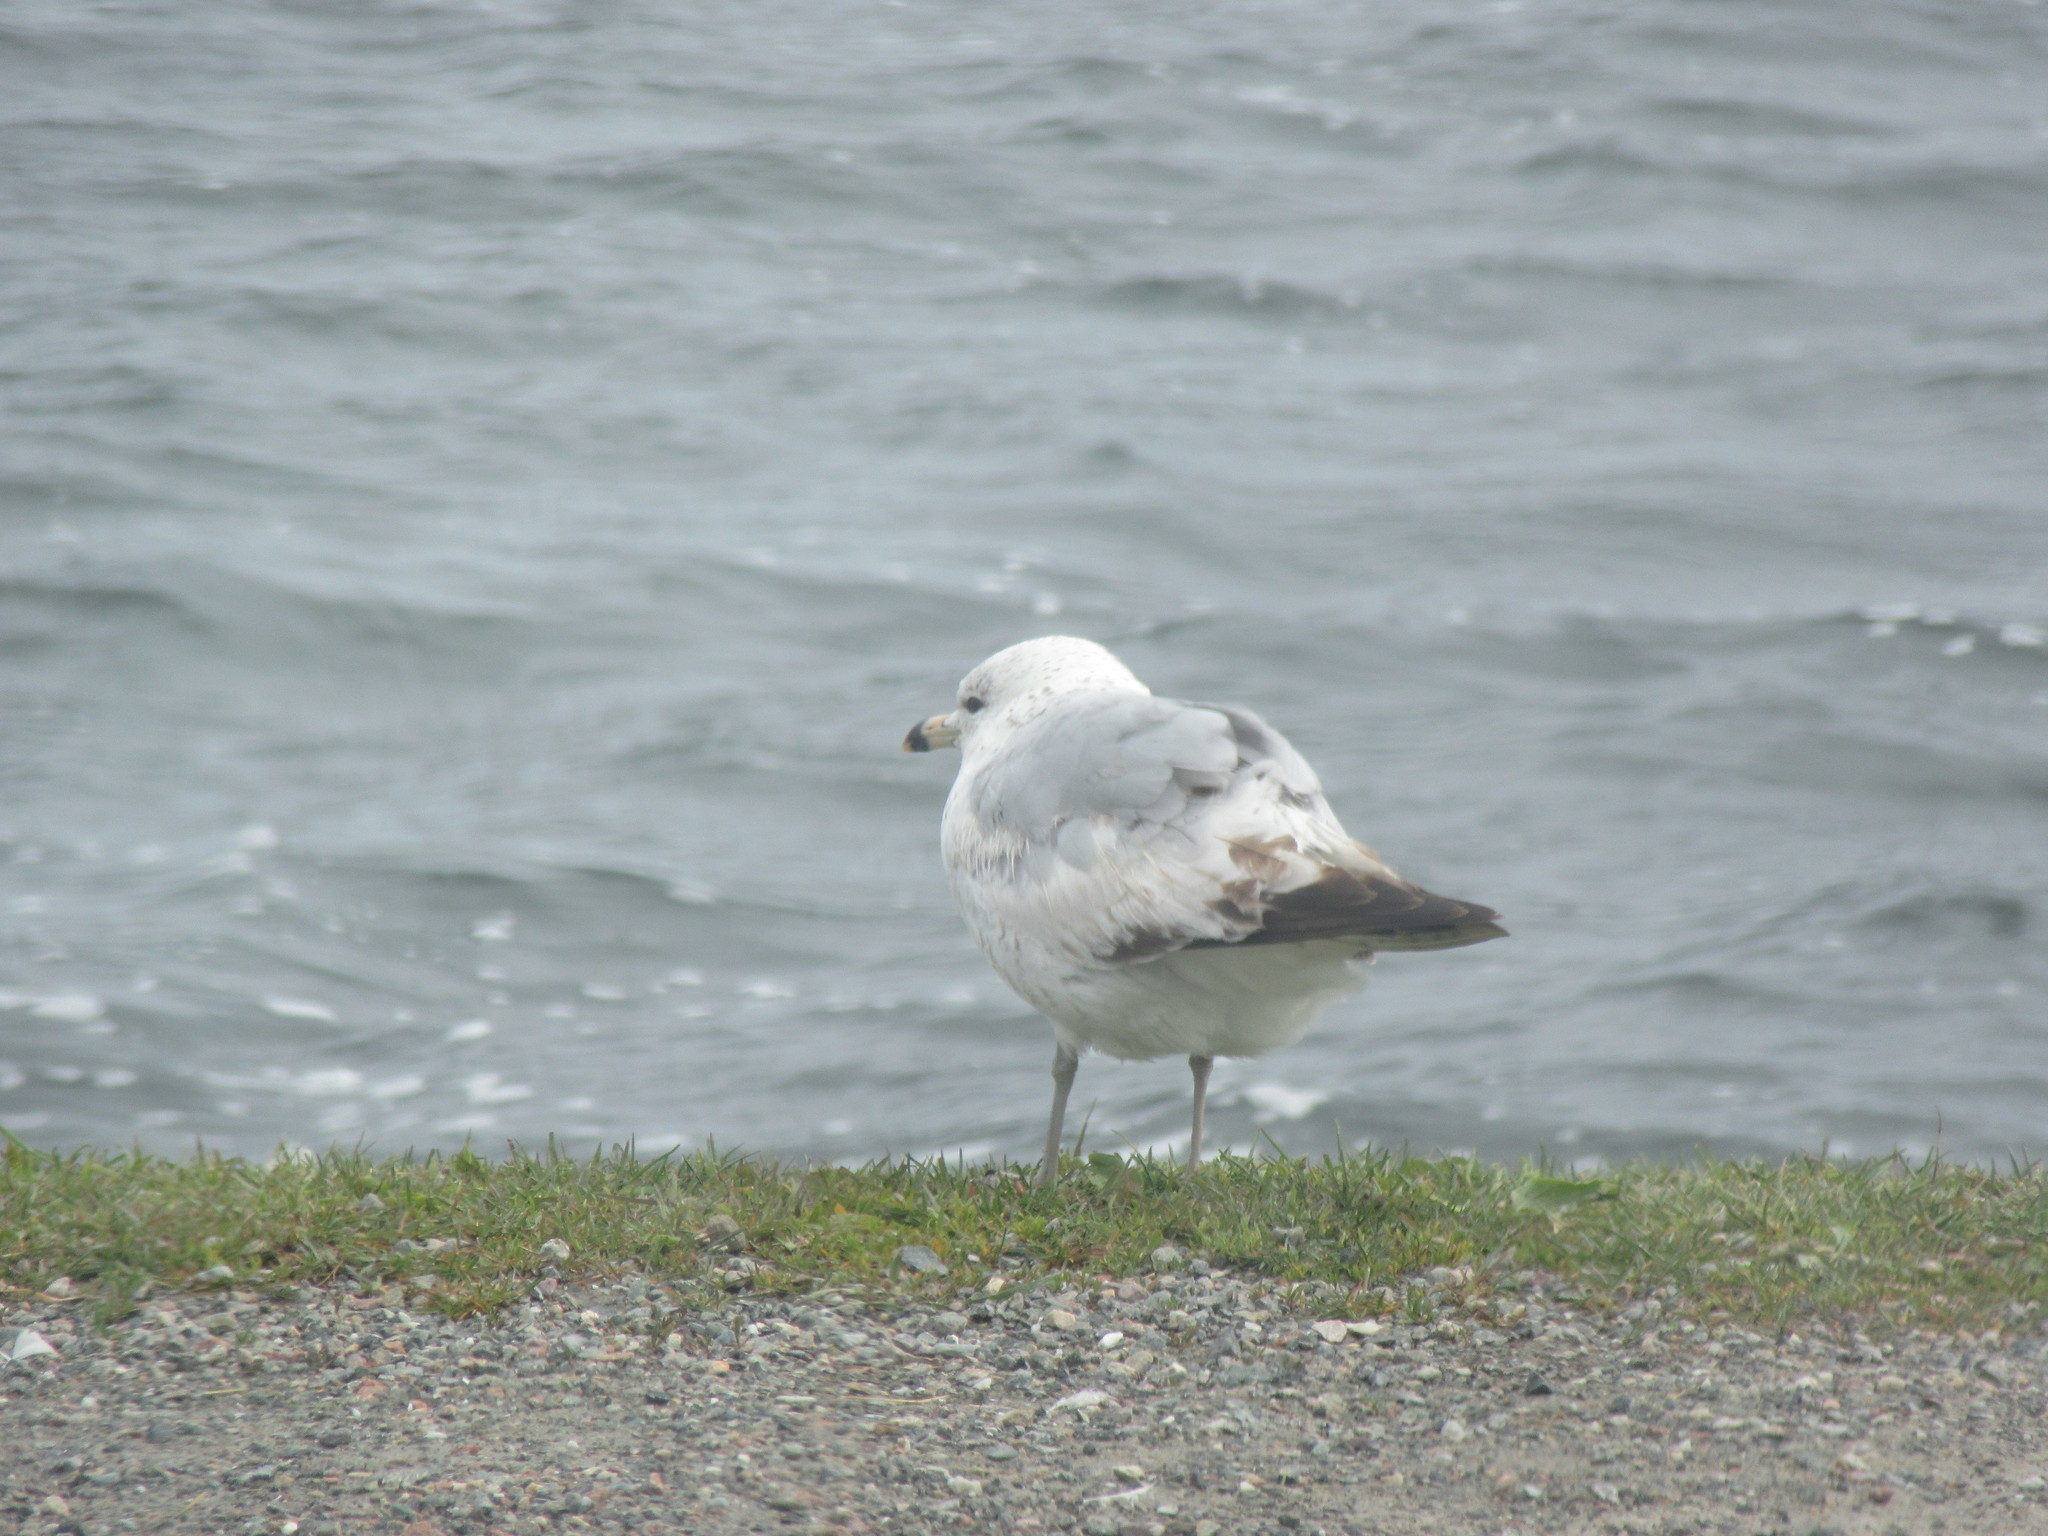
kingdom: Animalia
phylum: Chordata
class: Aves
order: Charadriiformes
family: Laridae
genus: Larus
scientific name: Larus delawarensis
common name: Ring-billed gull
